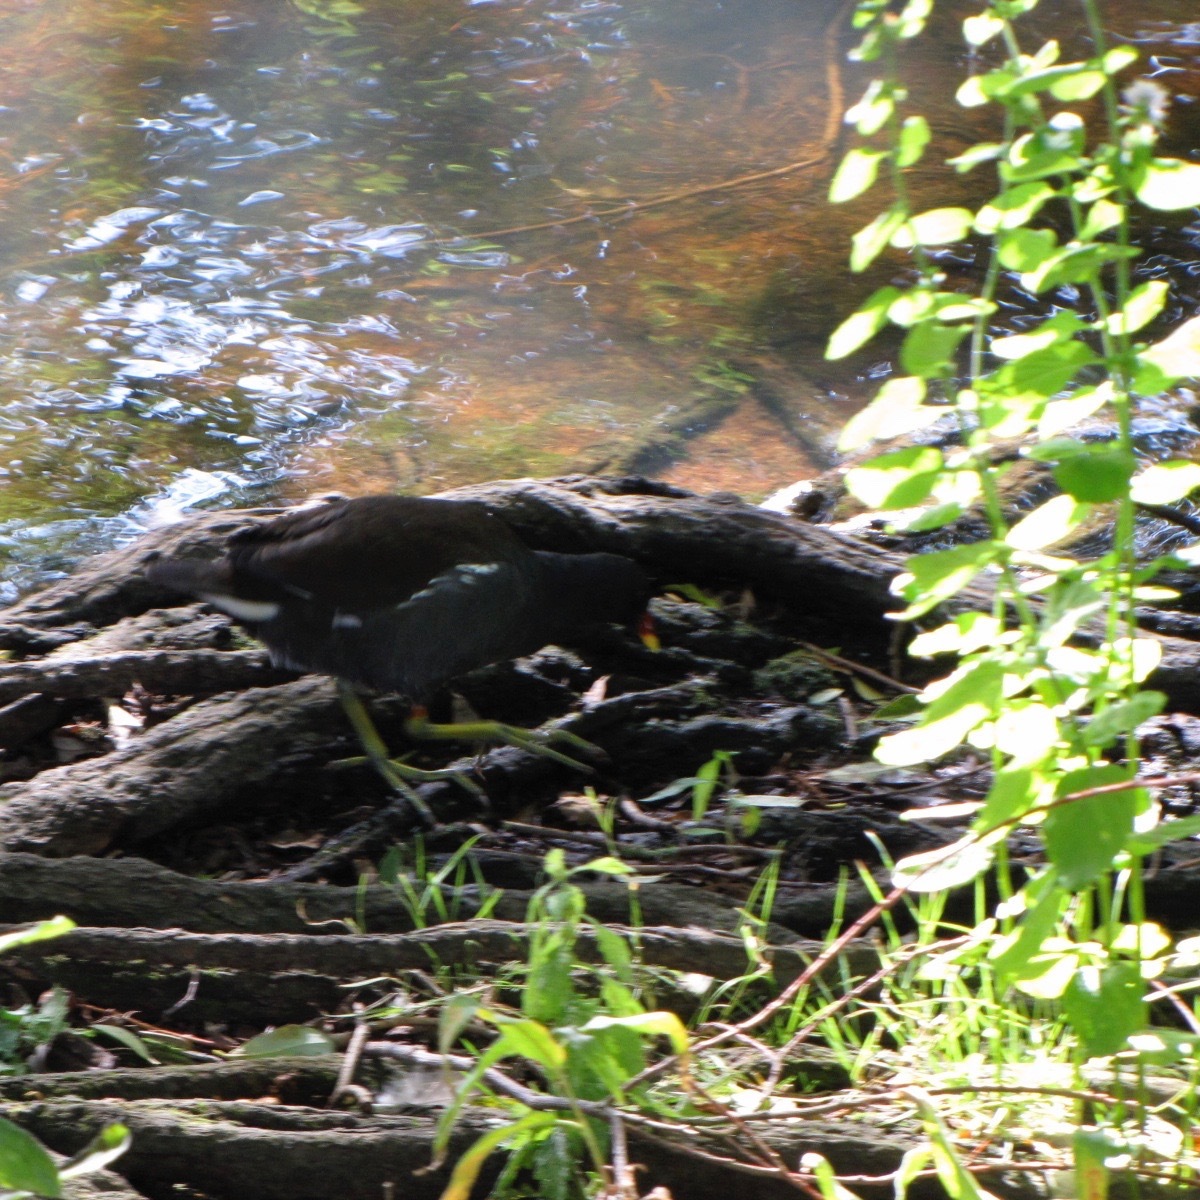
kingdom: Animalia
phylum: Chordata
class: Aves
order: Gruiformes
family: Rallidae
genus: Gallinula
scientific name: Gallinula chloropus
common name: Common moorhen
